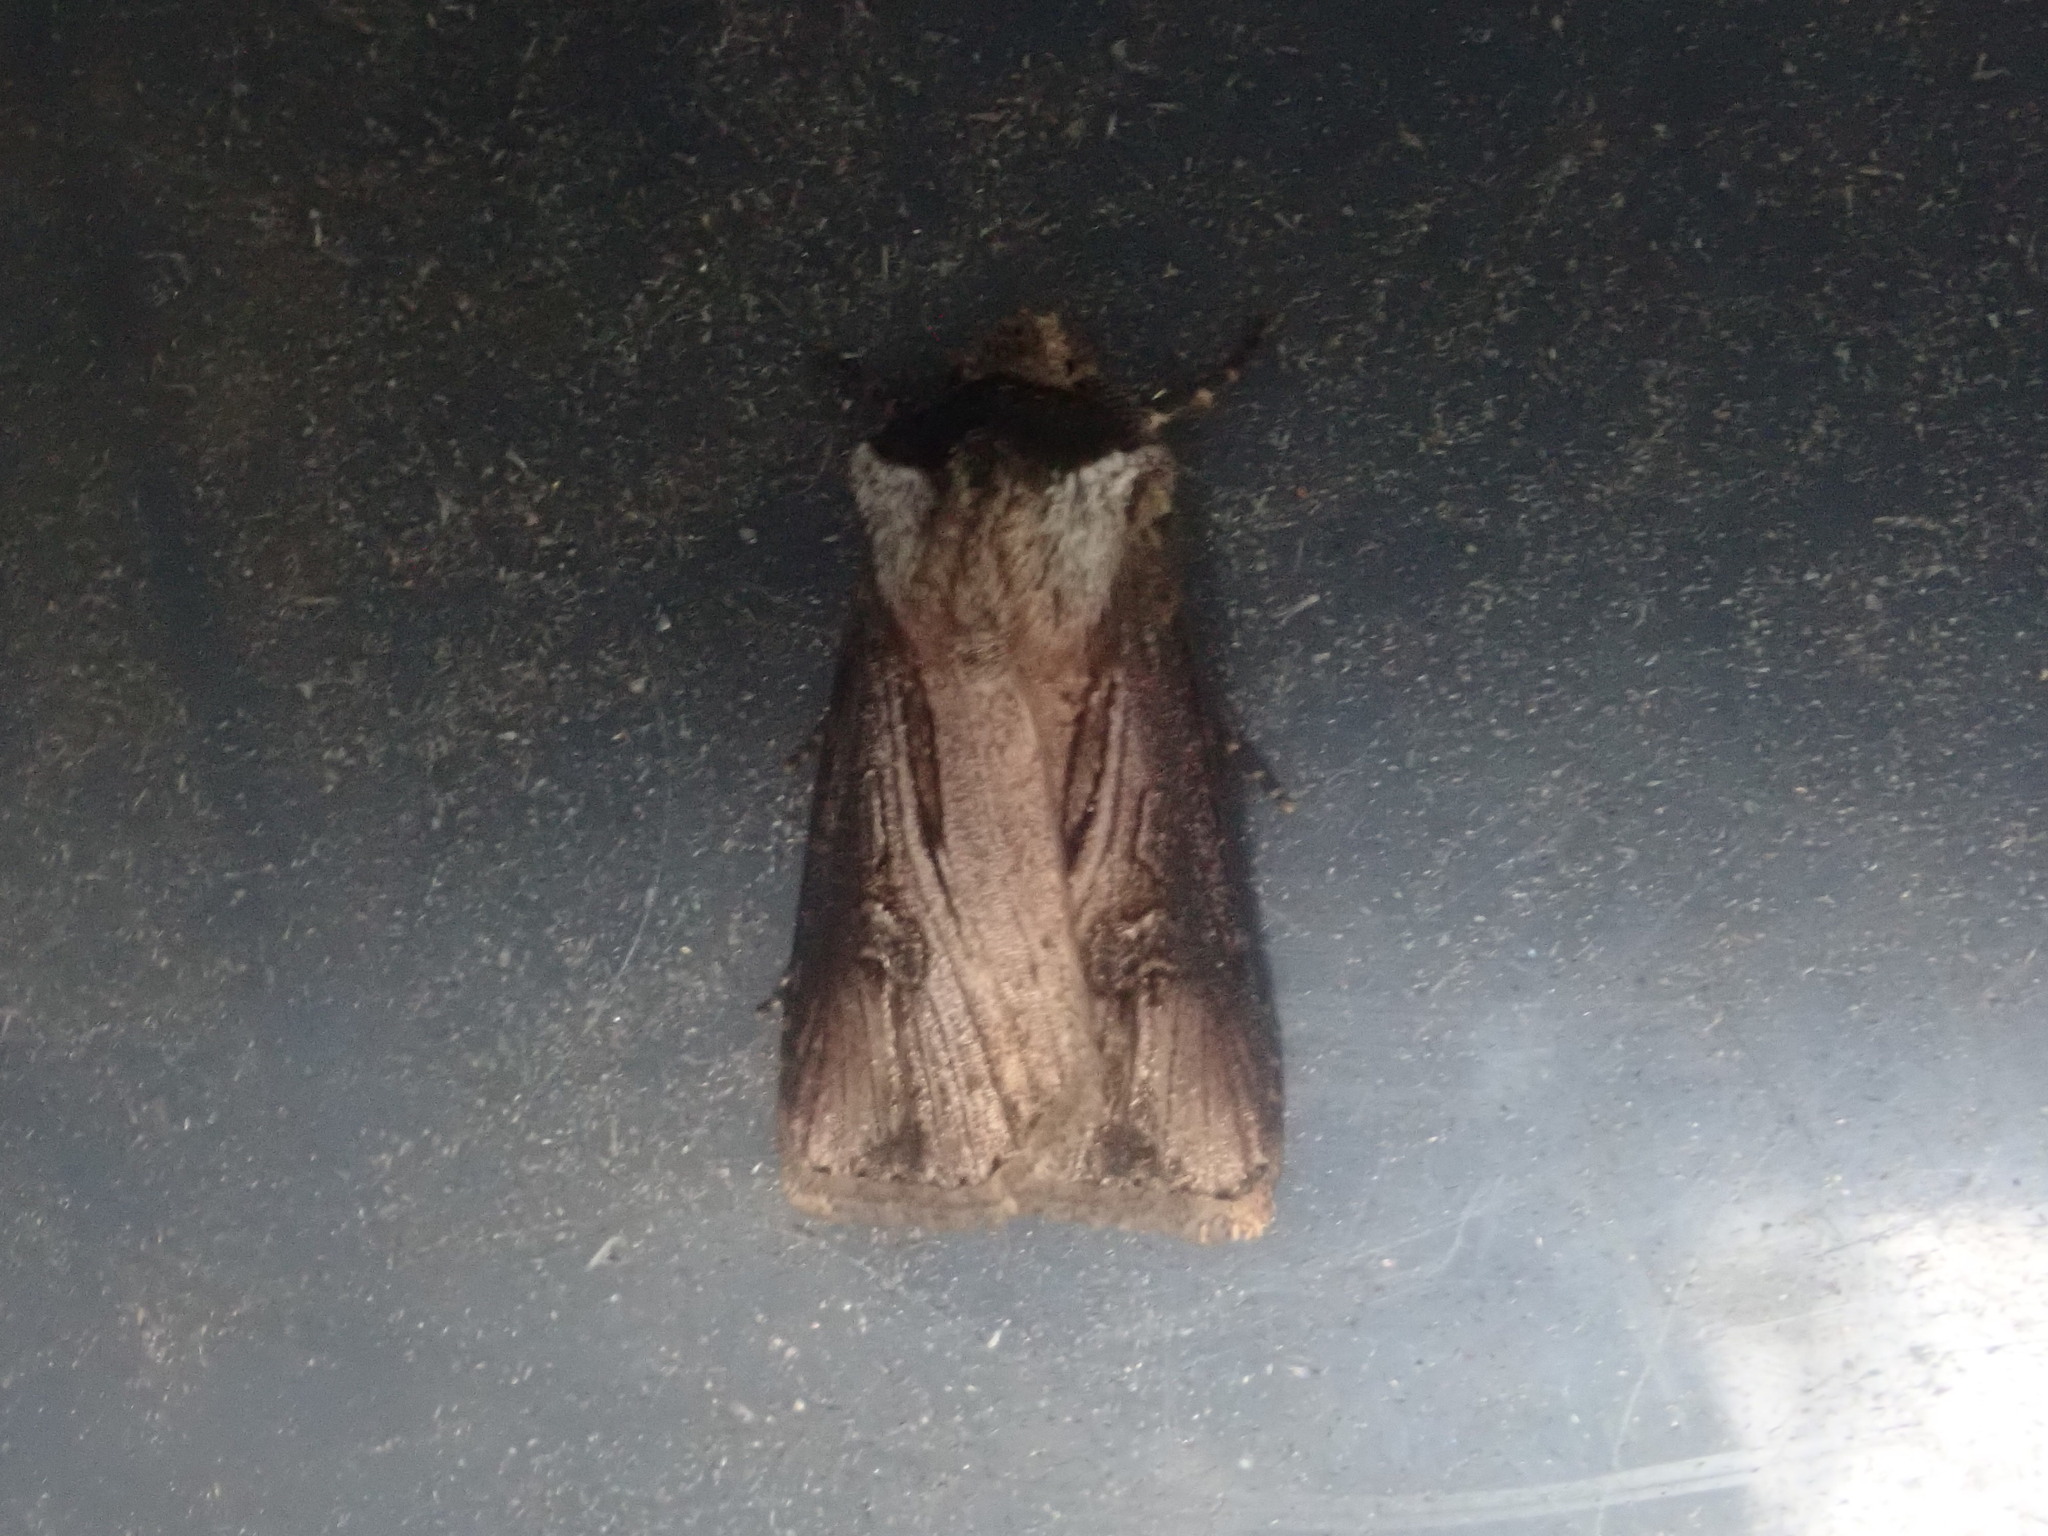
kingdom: Animalia
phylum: Arthropoda
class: Insecta
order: Lepidoptera
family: Noctuidae
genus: Agrotis
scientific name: Agrotis venerabilis
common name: Venerable dart
